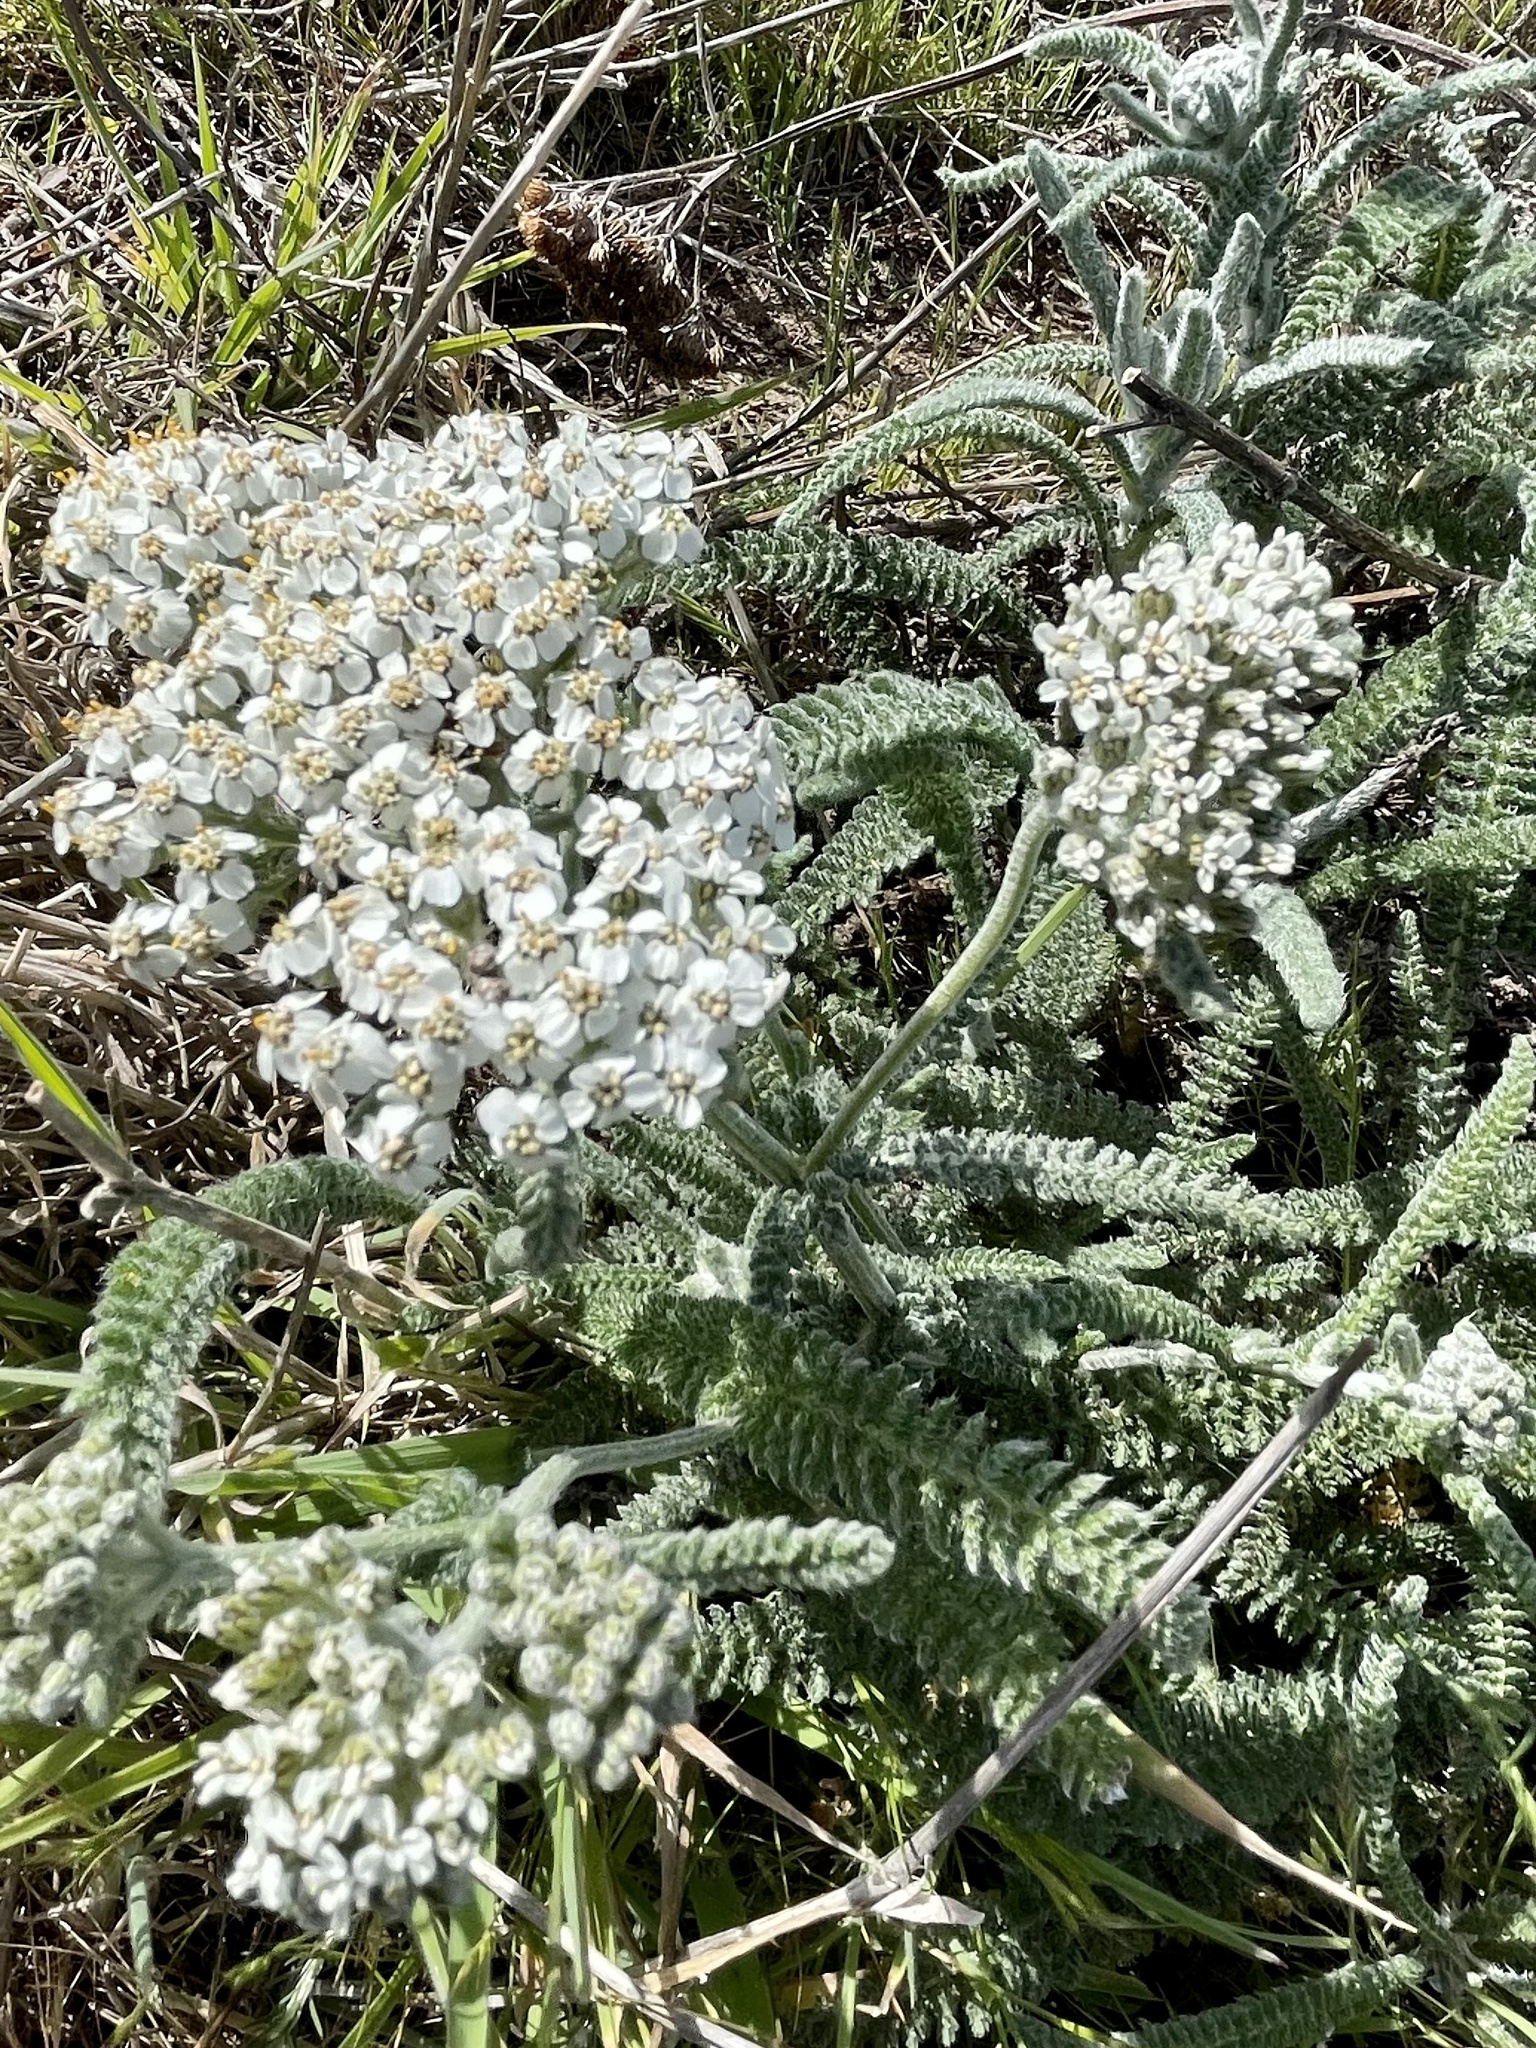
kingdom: Plantae
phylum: Tracheophyta
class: Magnoliopsida
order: Asterales
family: Asteraceae
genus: Achillea
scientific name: Achillea millefolium
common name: Yarrow
